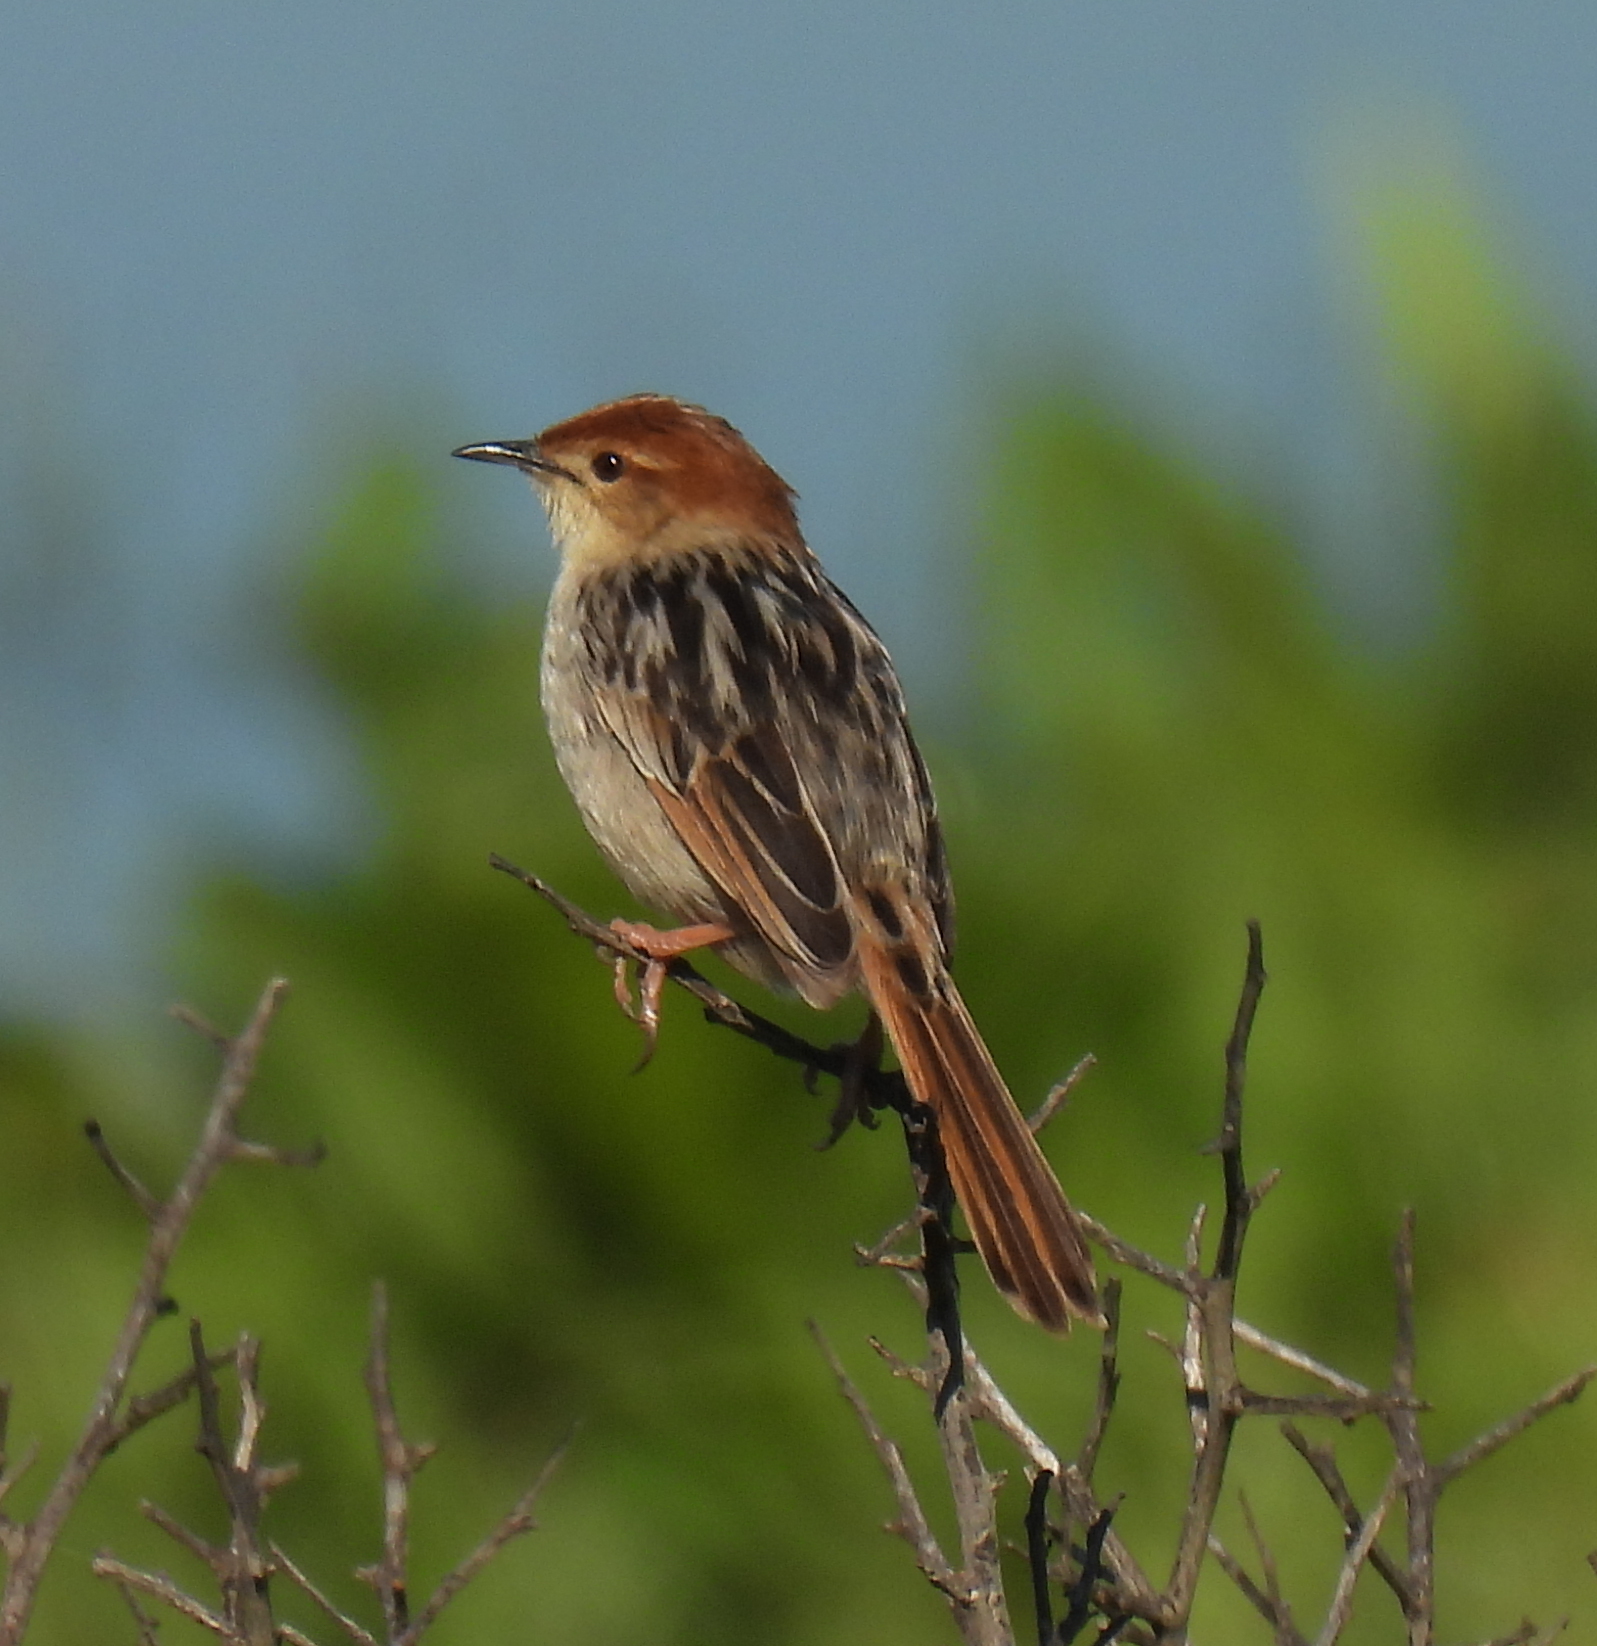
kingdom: Animalia
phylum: Chordata
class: Aves
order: Passeriformes
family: Cisticolidae
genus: Cisticola
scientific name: Cisticola tinniens
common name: Levaillant's cisticola
